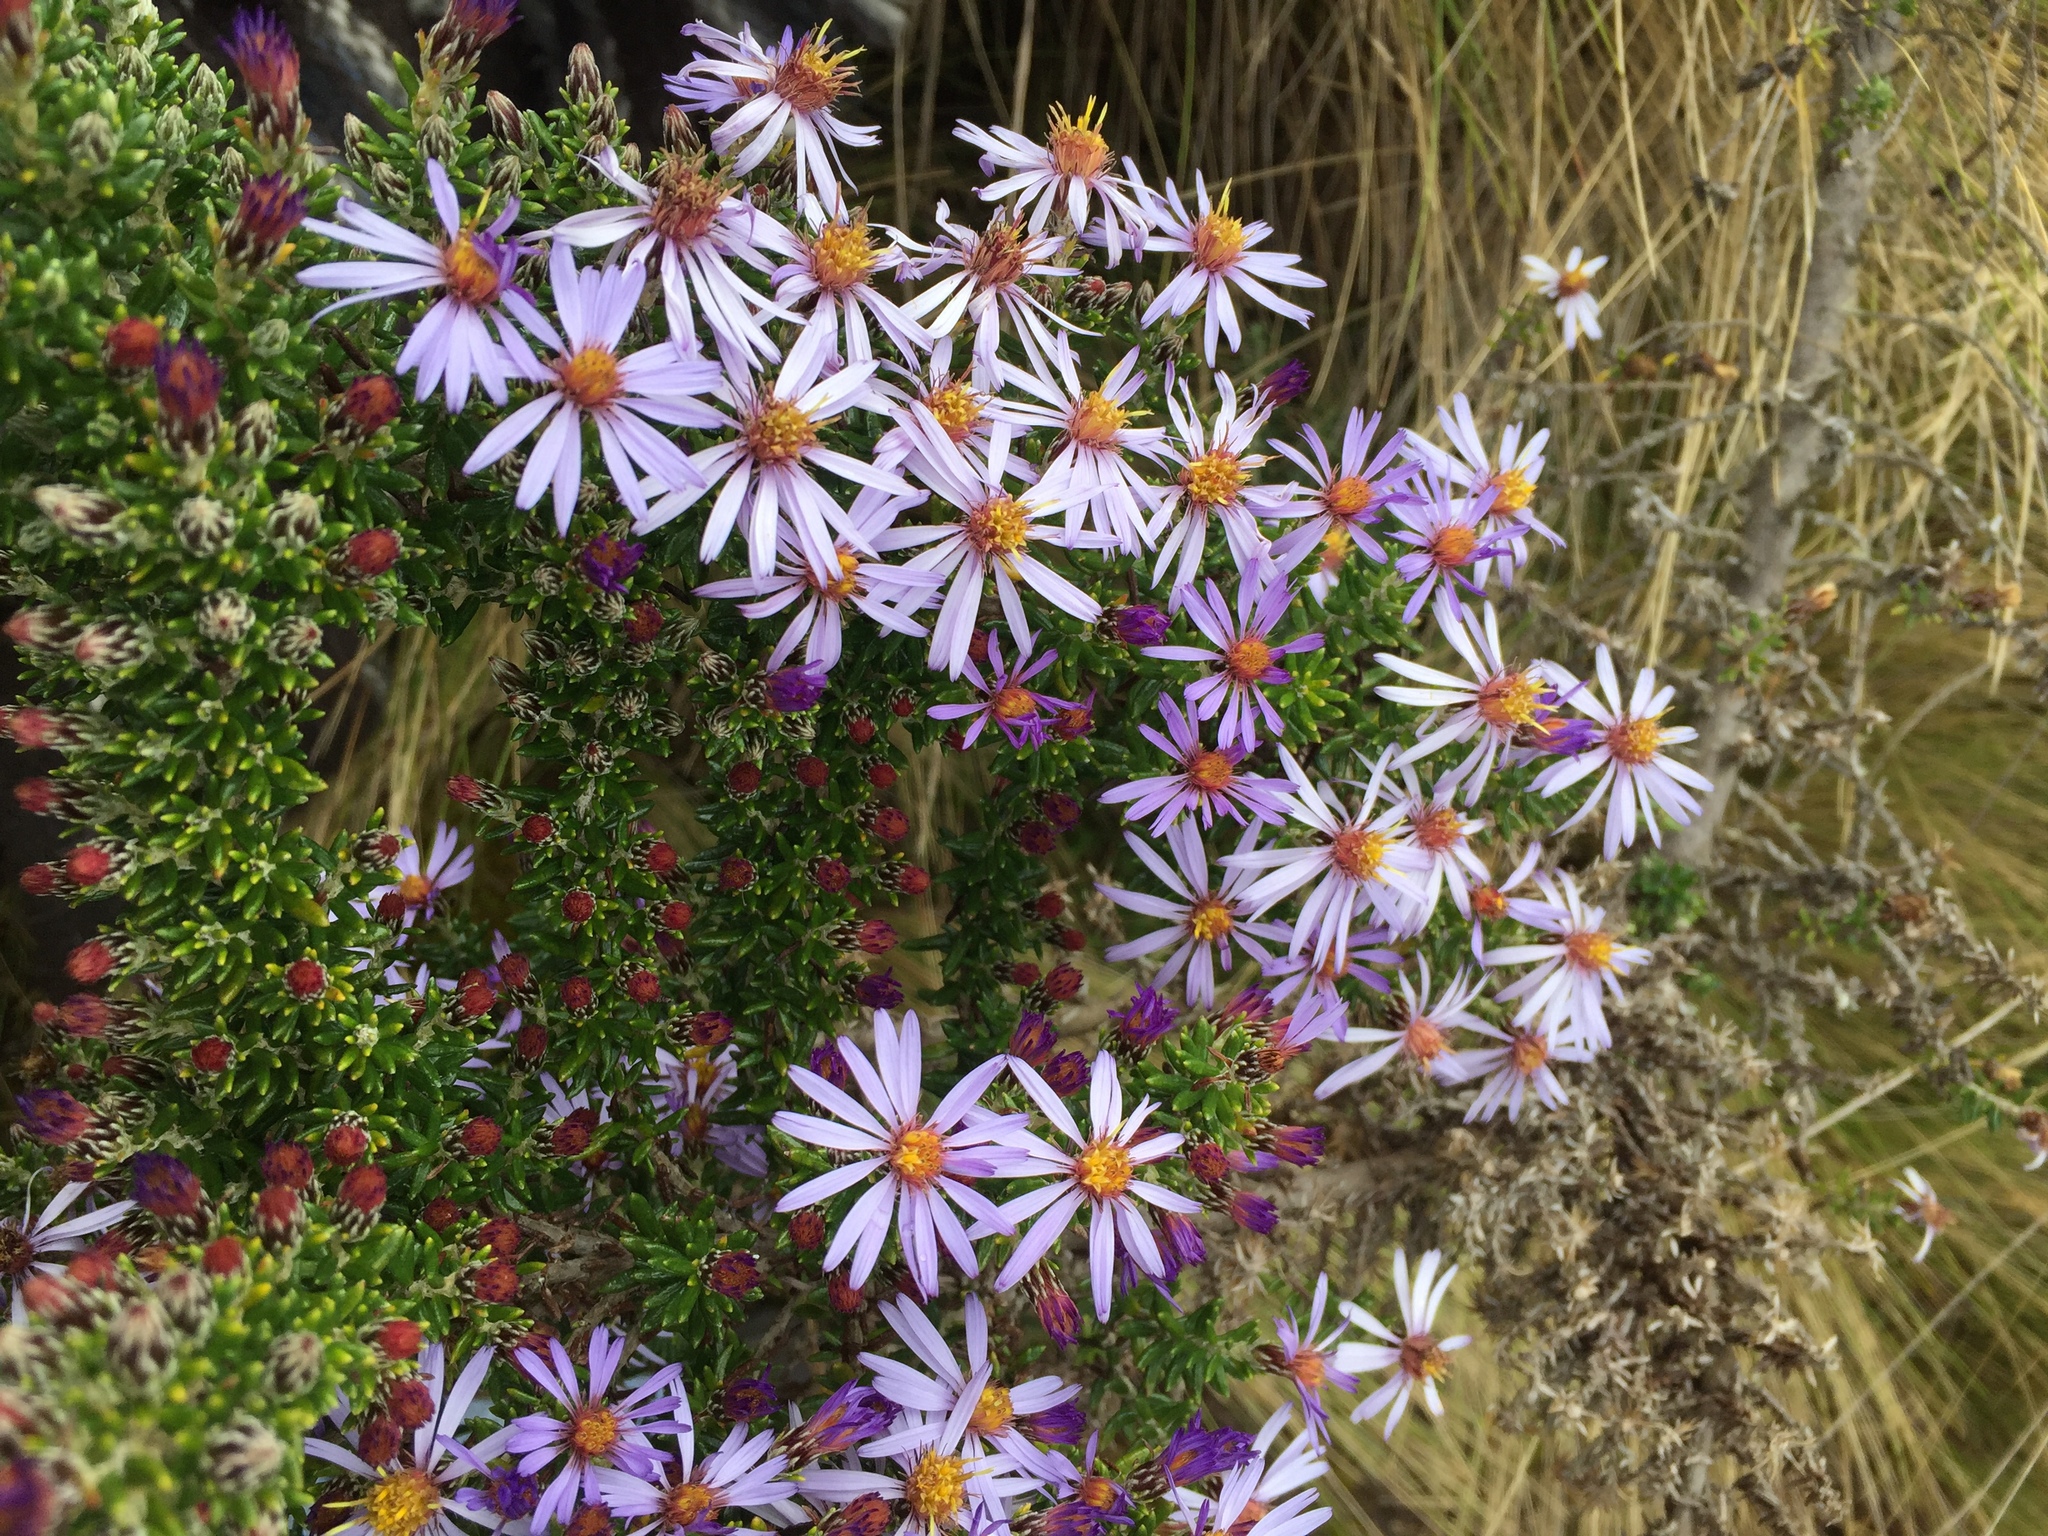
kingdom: Plantae
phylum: Tracheophyta
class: Magnoliopsida
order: Asterales
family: Asteraceae
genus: Diplostephium
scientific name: Diplostephium hartwegii
